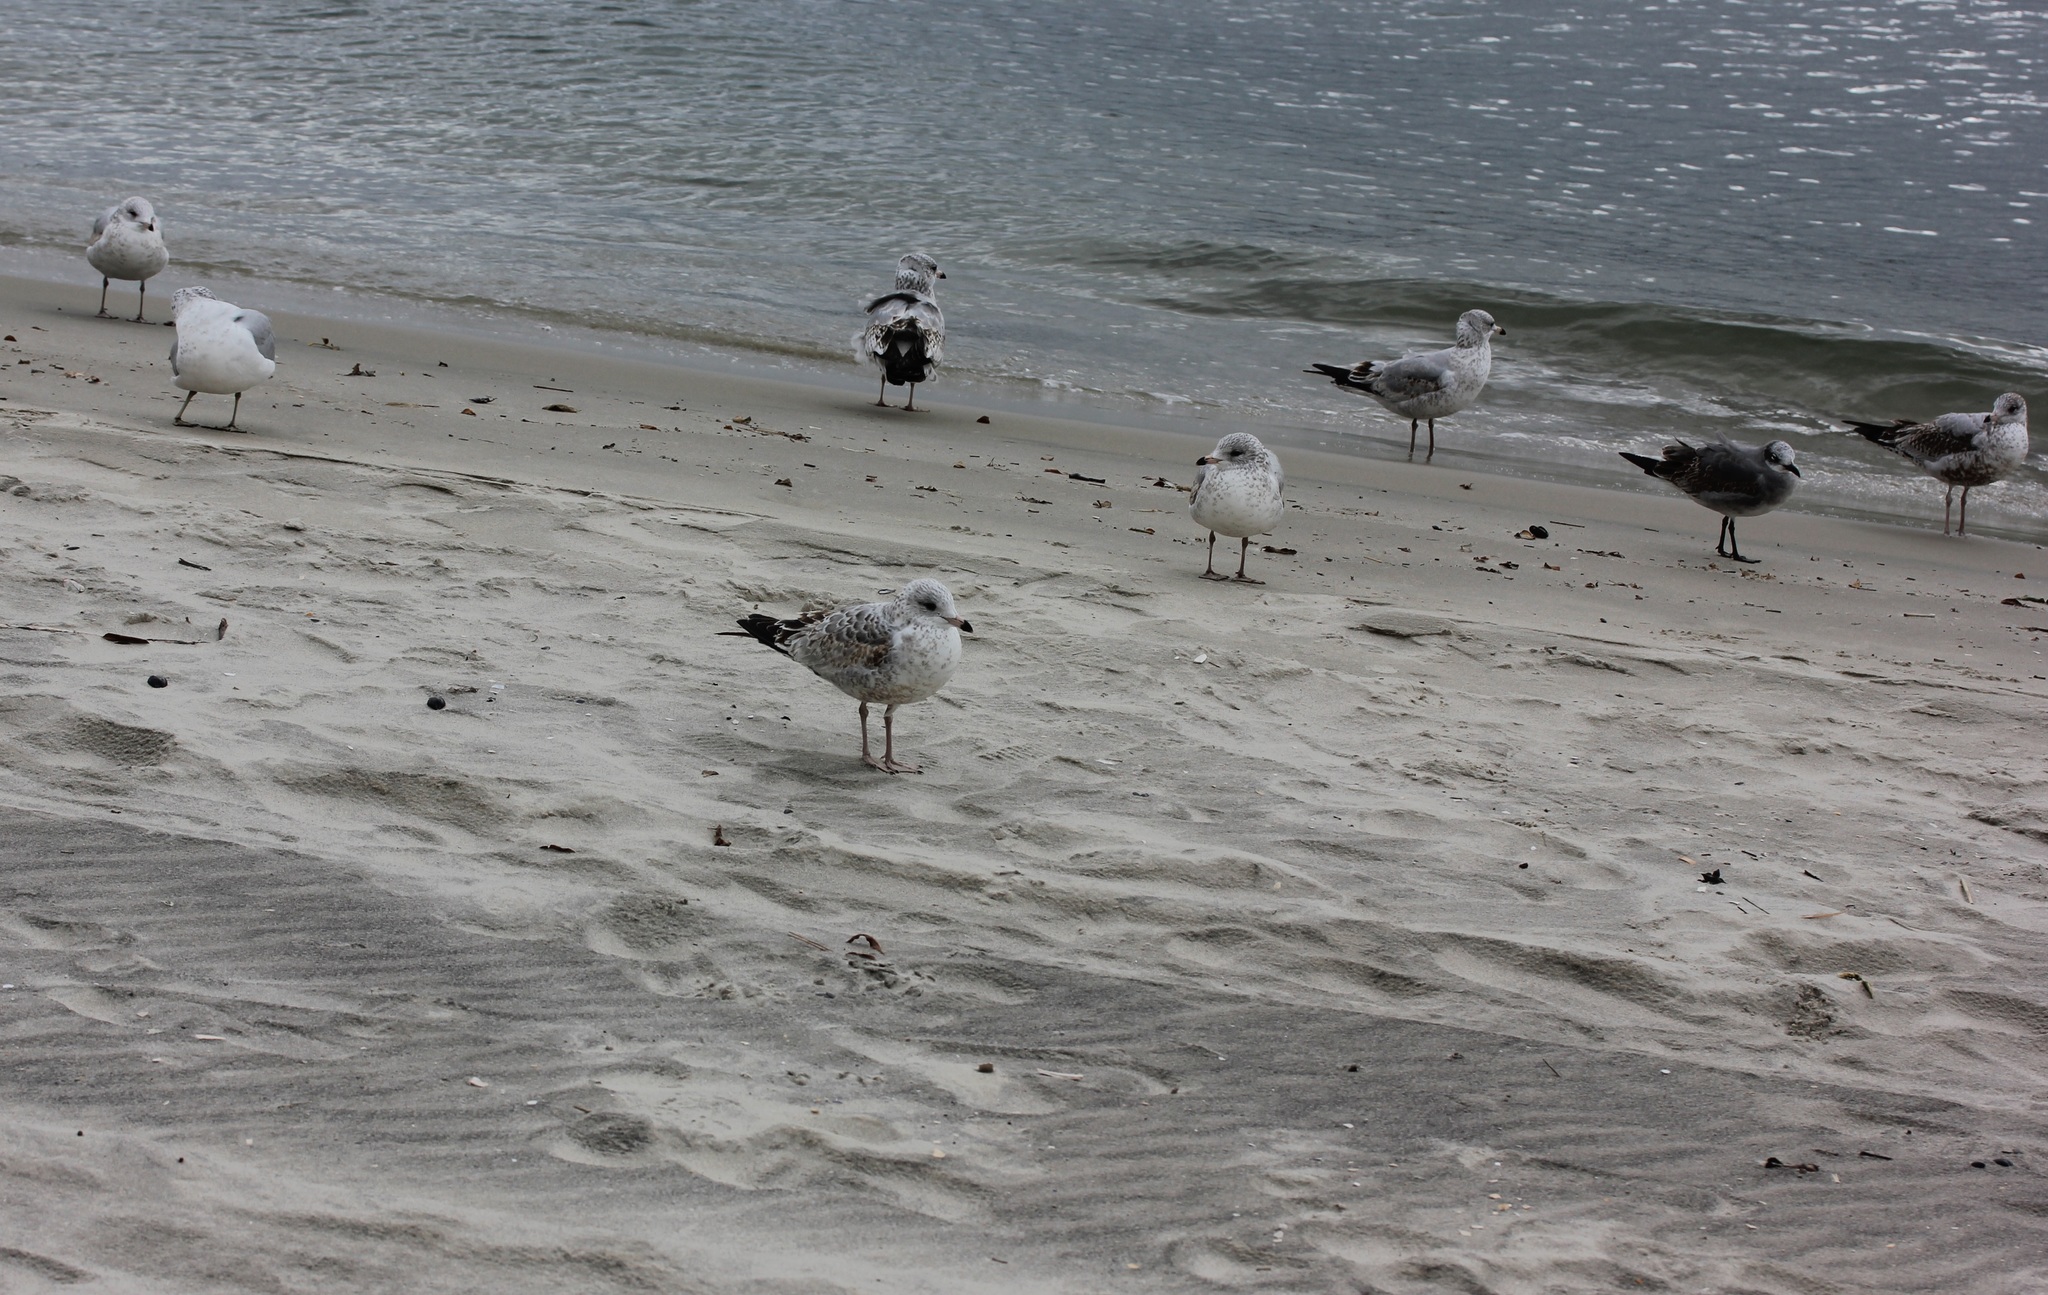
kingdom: Animalia
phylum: Chordata
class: Aves
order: Charadriiformes
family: Laridae
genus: Larus
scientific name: Larus delawarensis
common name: Ring-billed gull
